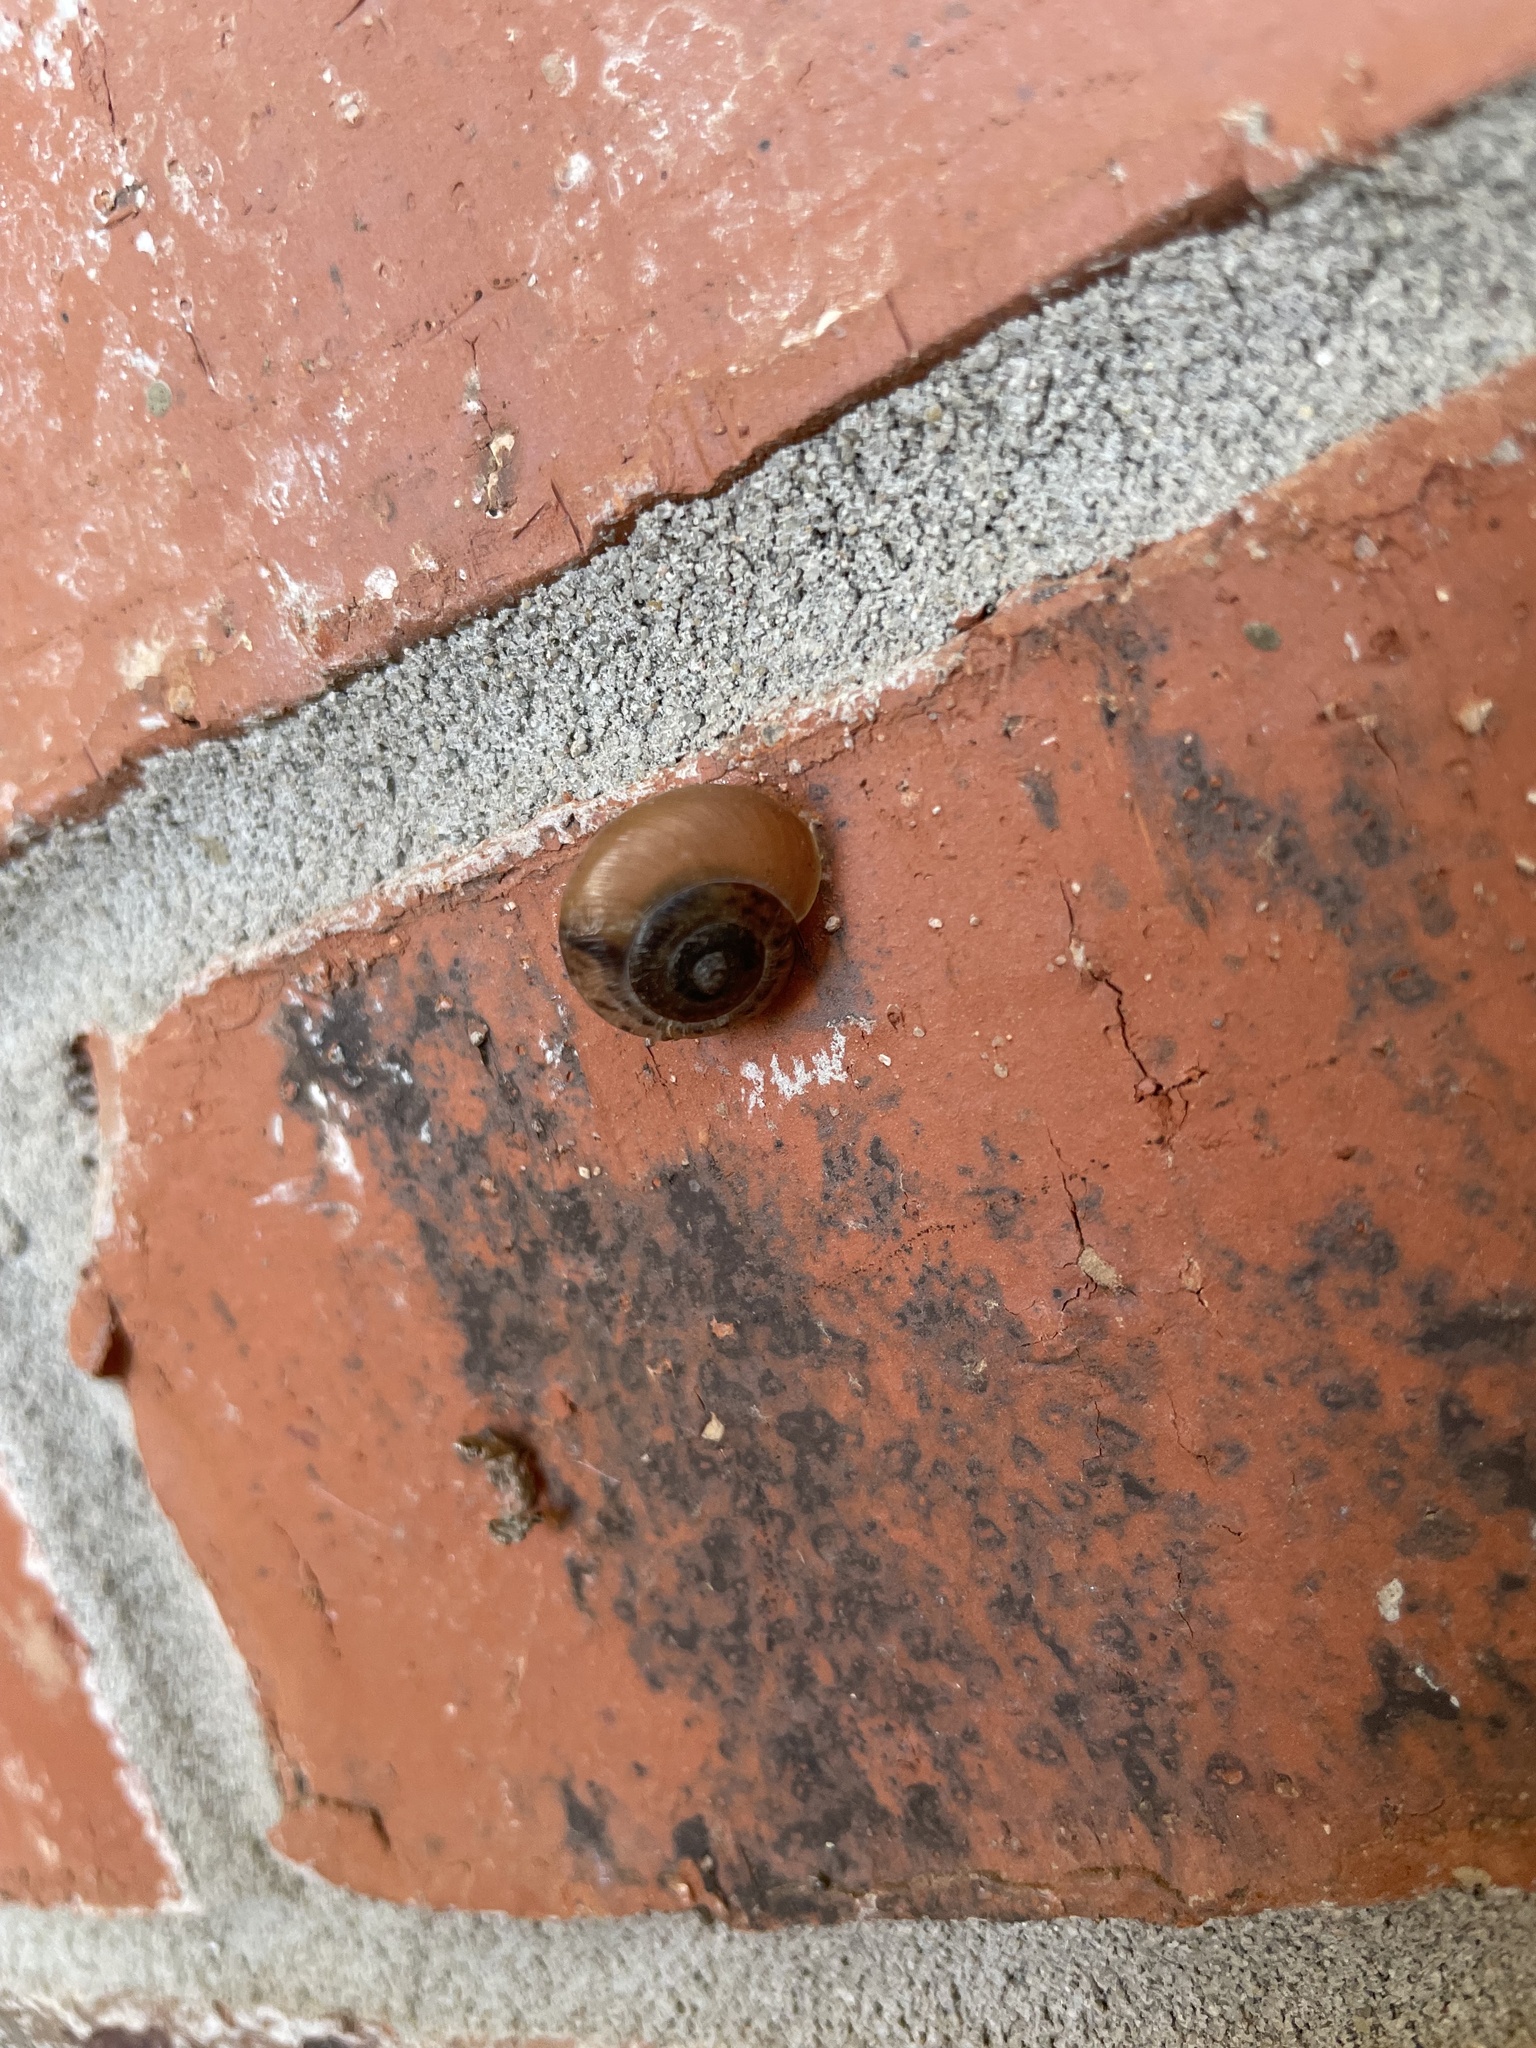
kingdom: Animalia
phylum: Mollusca
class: Gastropoda
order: Stylommatophora
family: Camaenidae
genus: Bradybaena
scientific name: Bradybaena similaris
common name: Asian trampsnail
